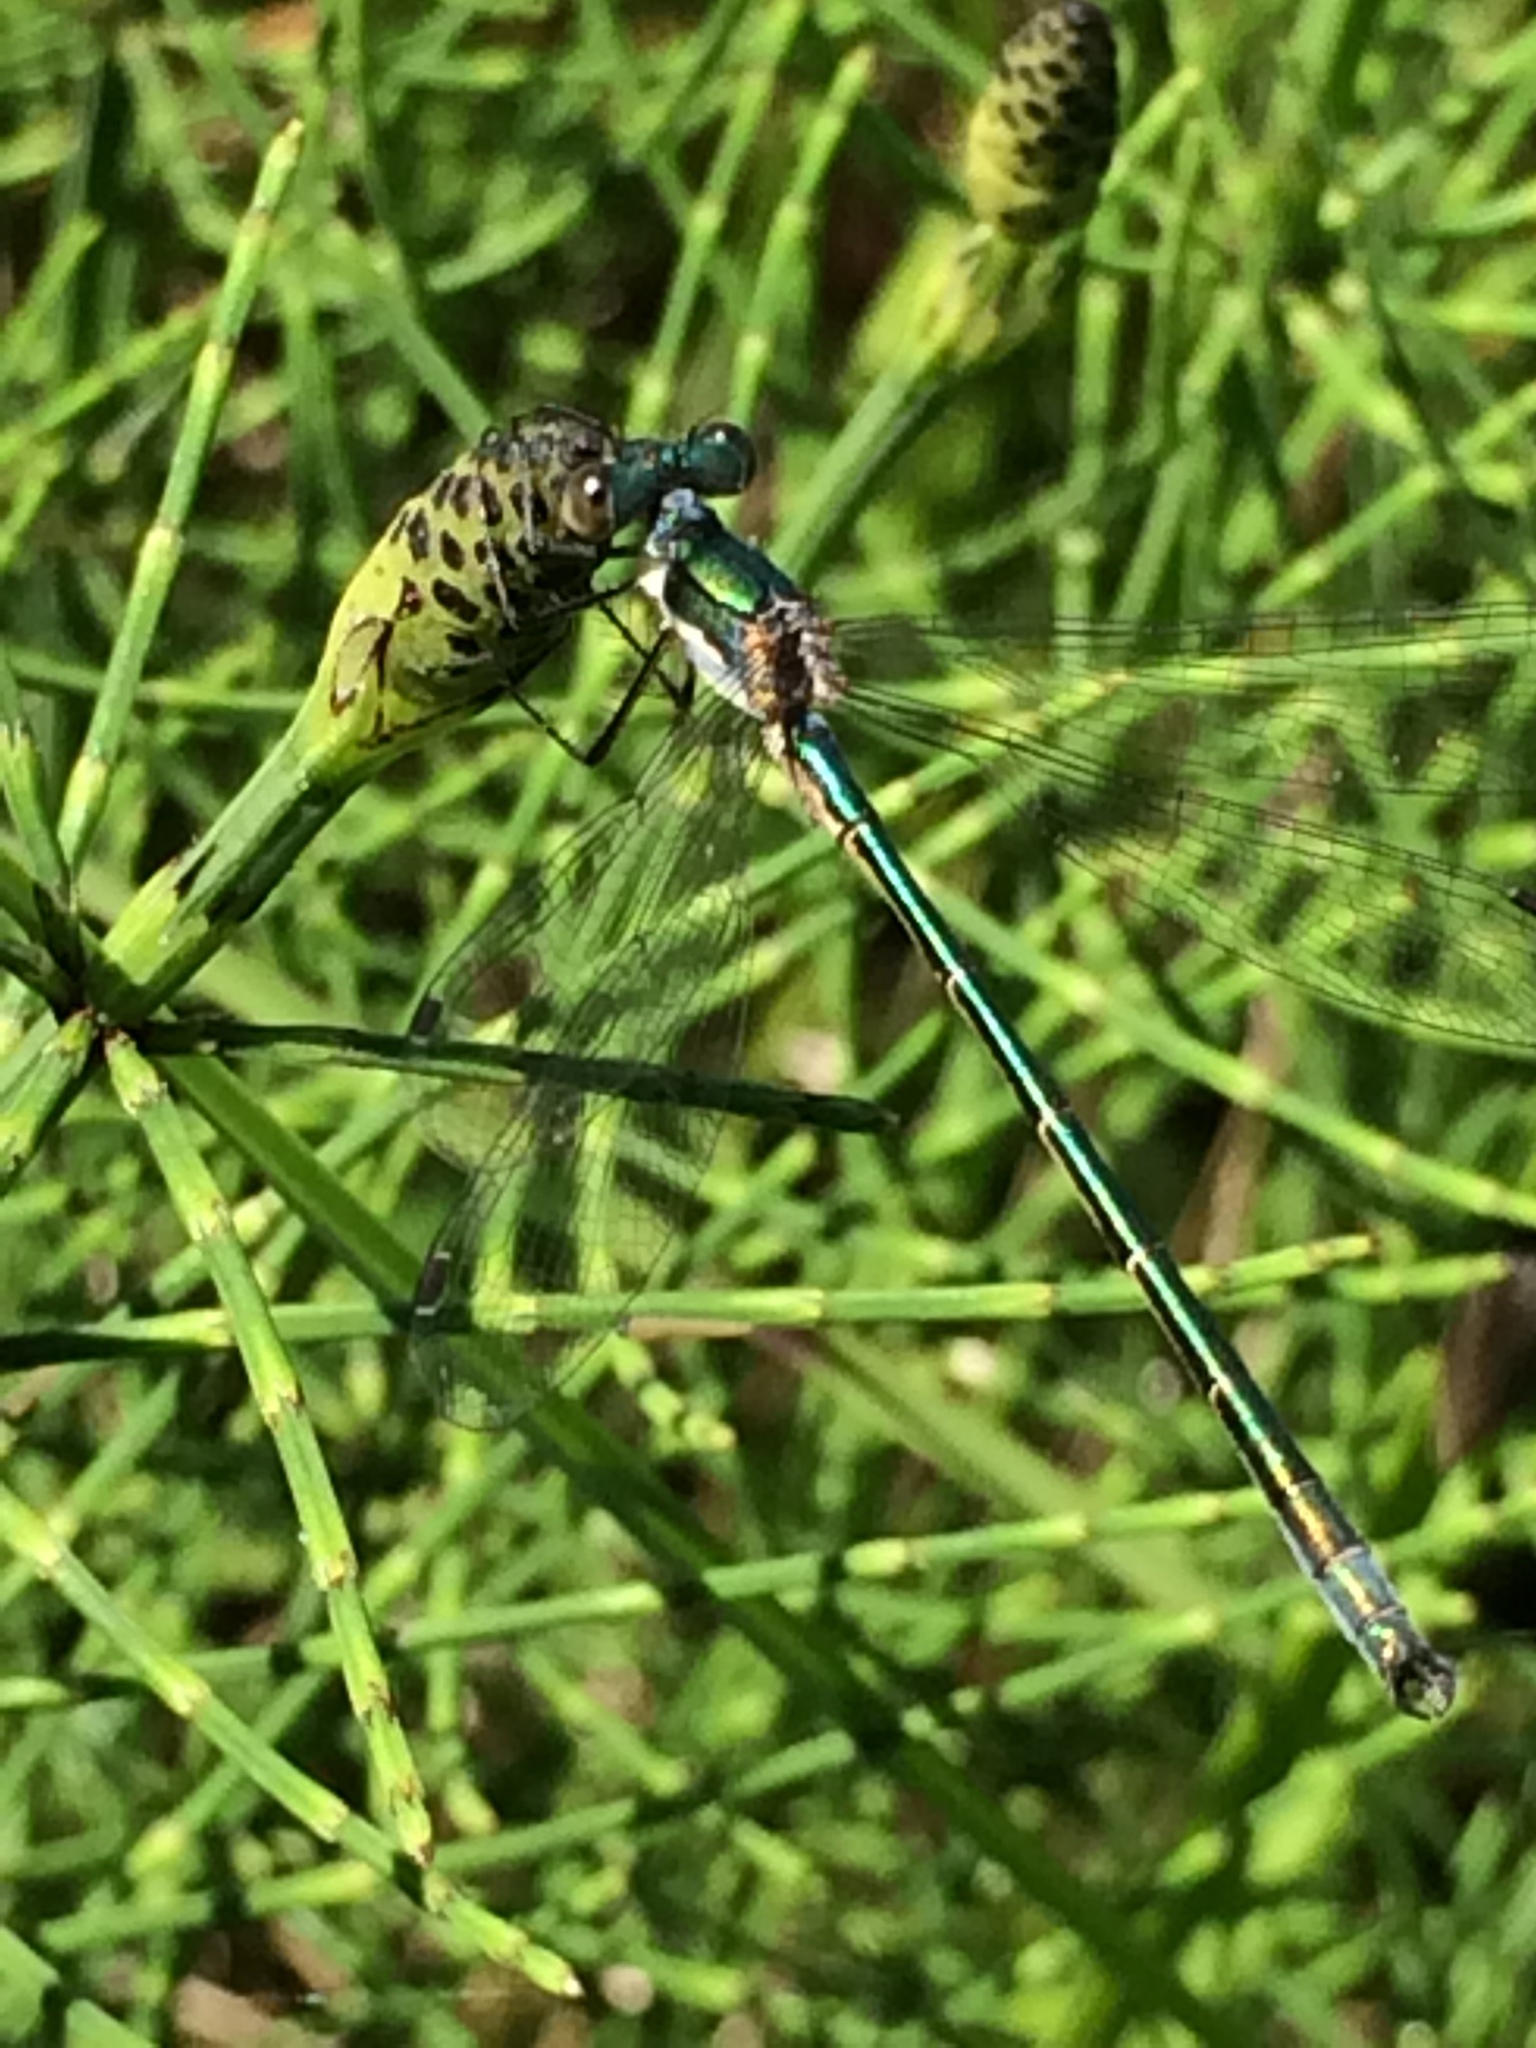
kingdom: Animalia
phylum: Arthropoda
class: Insecta
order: Odonata
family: Lestidae
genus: Lestes
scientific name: Lestes dryas
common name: Scarce emerald damselfly
